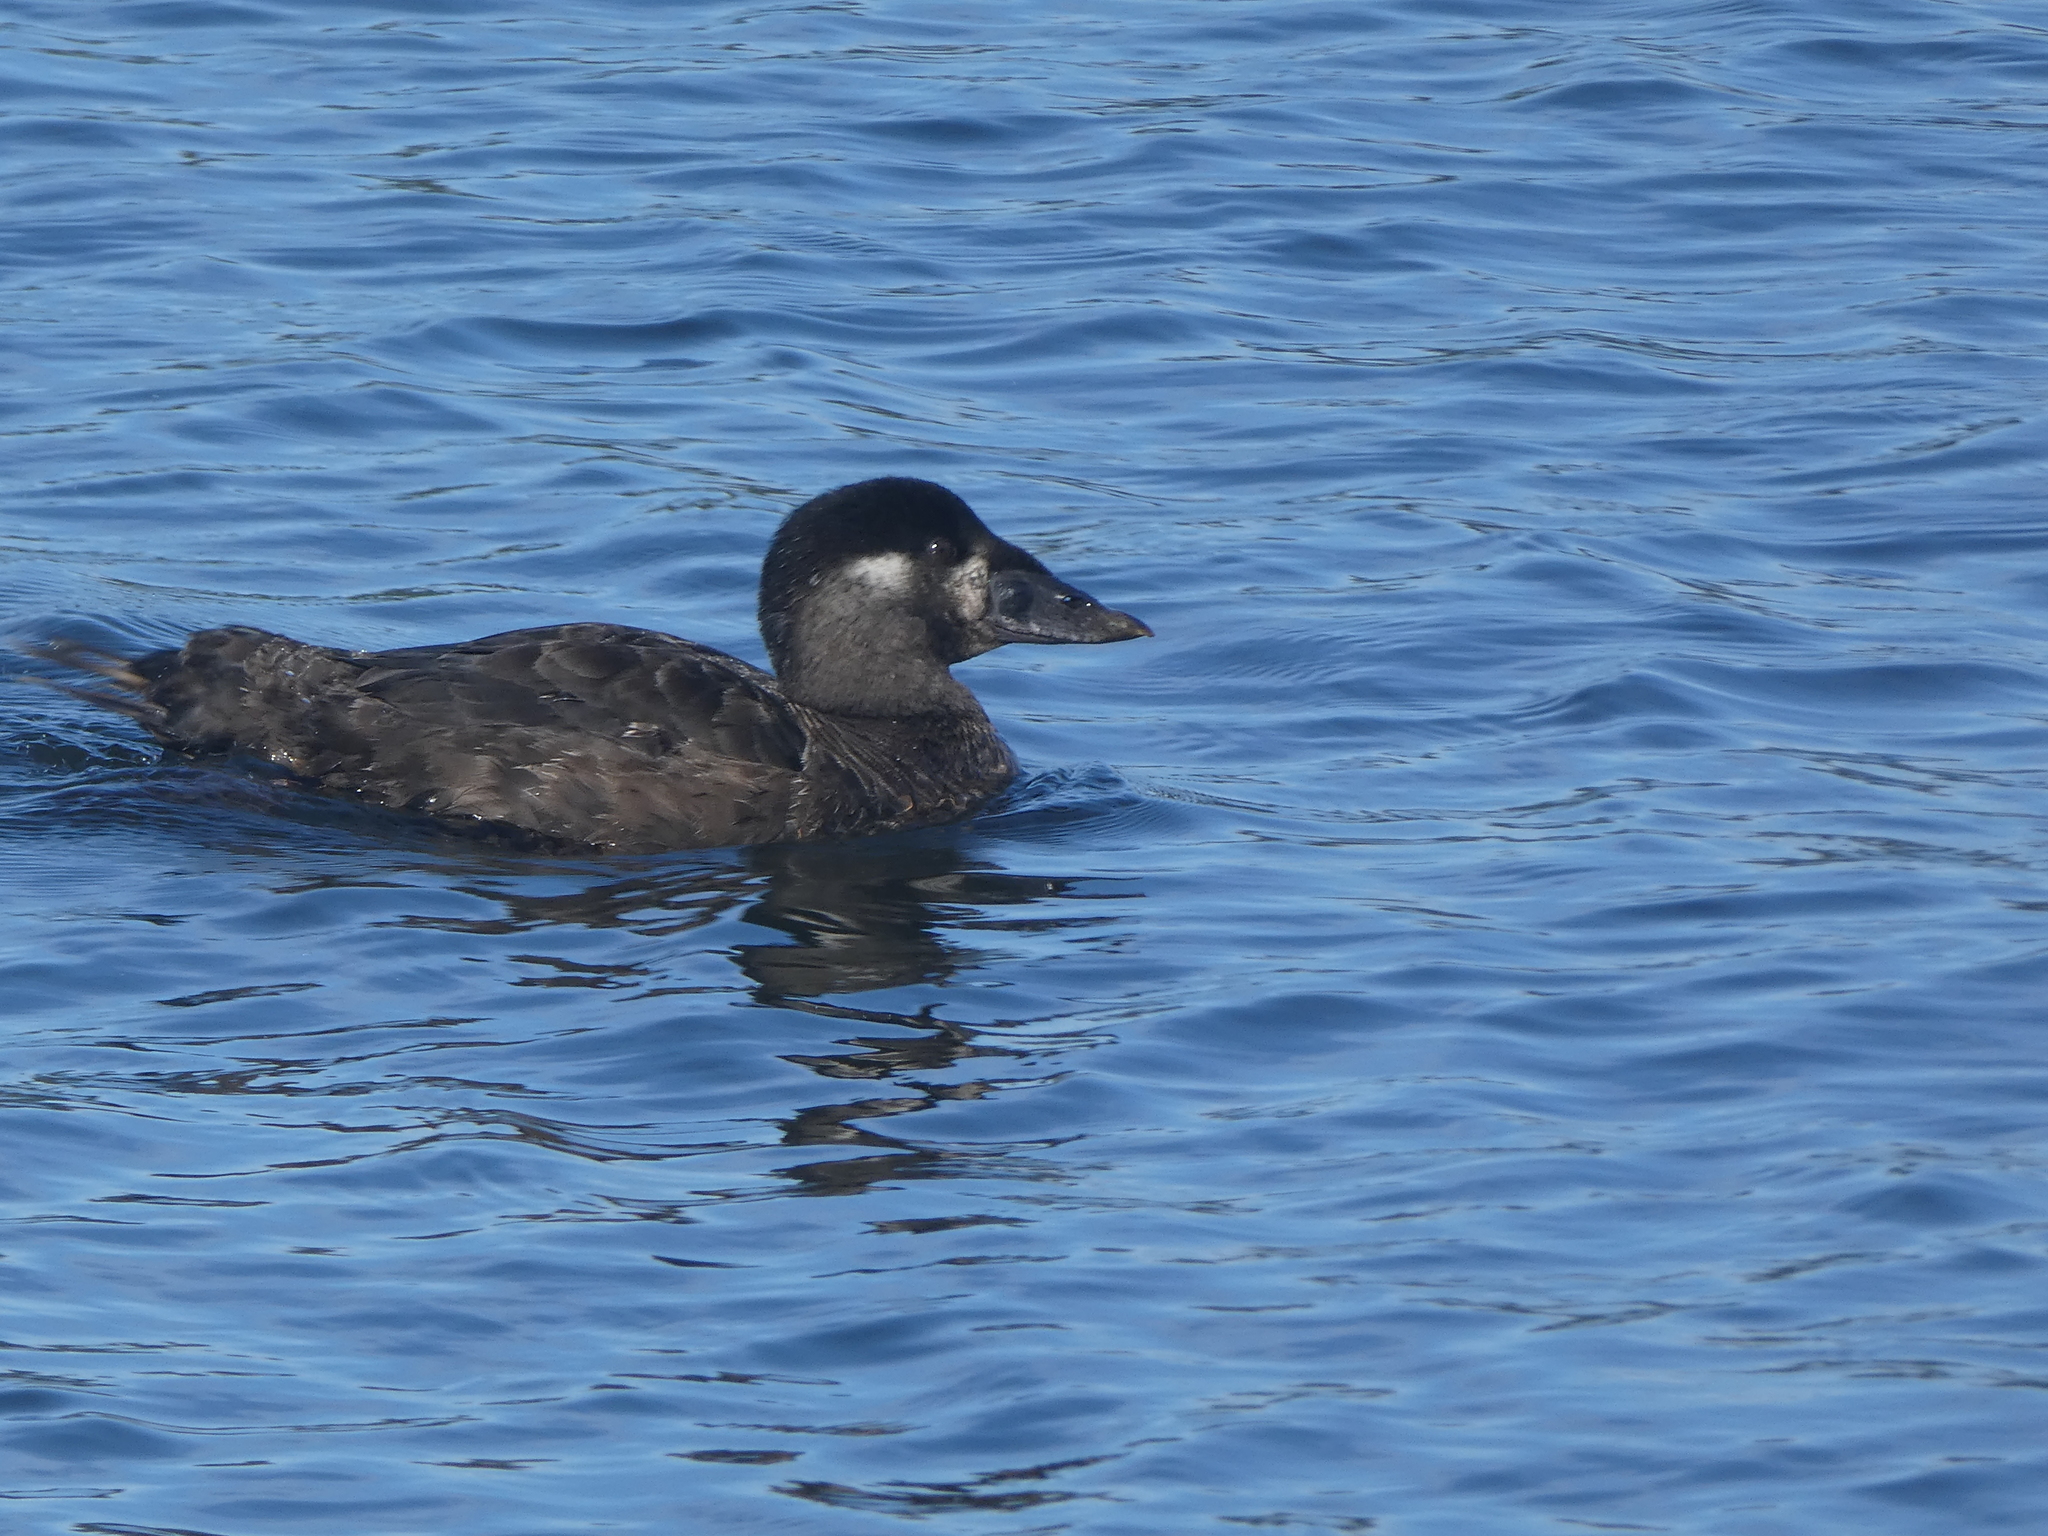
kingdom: Animalia
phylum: Chordata
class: Aves
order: Anseriformes
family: Anatidae
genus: Melanitta
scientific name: Melanitta perspicillata
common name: Surf scoter
